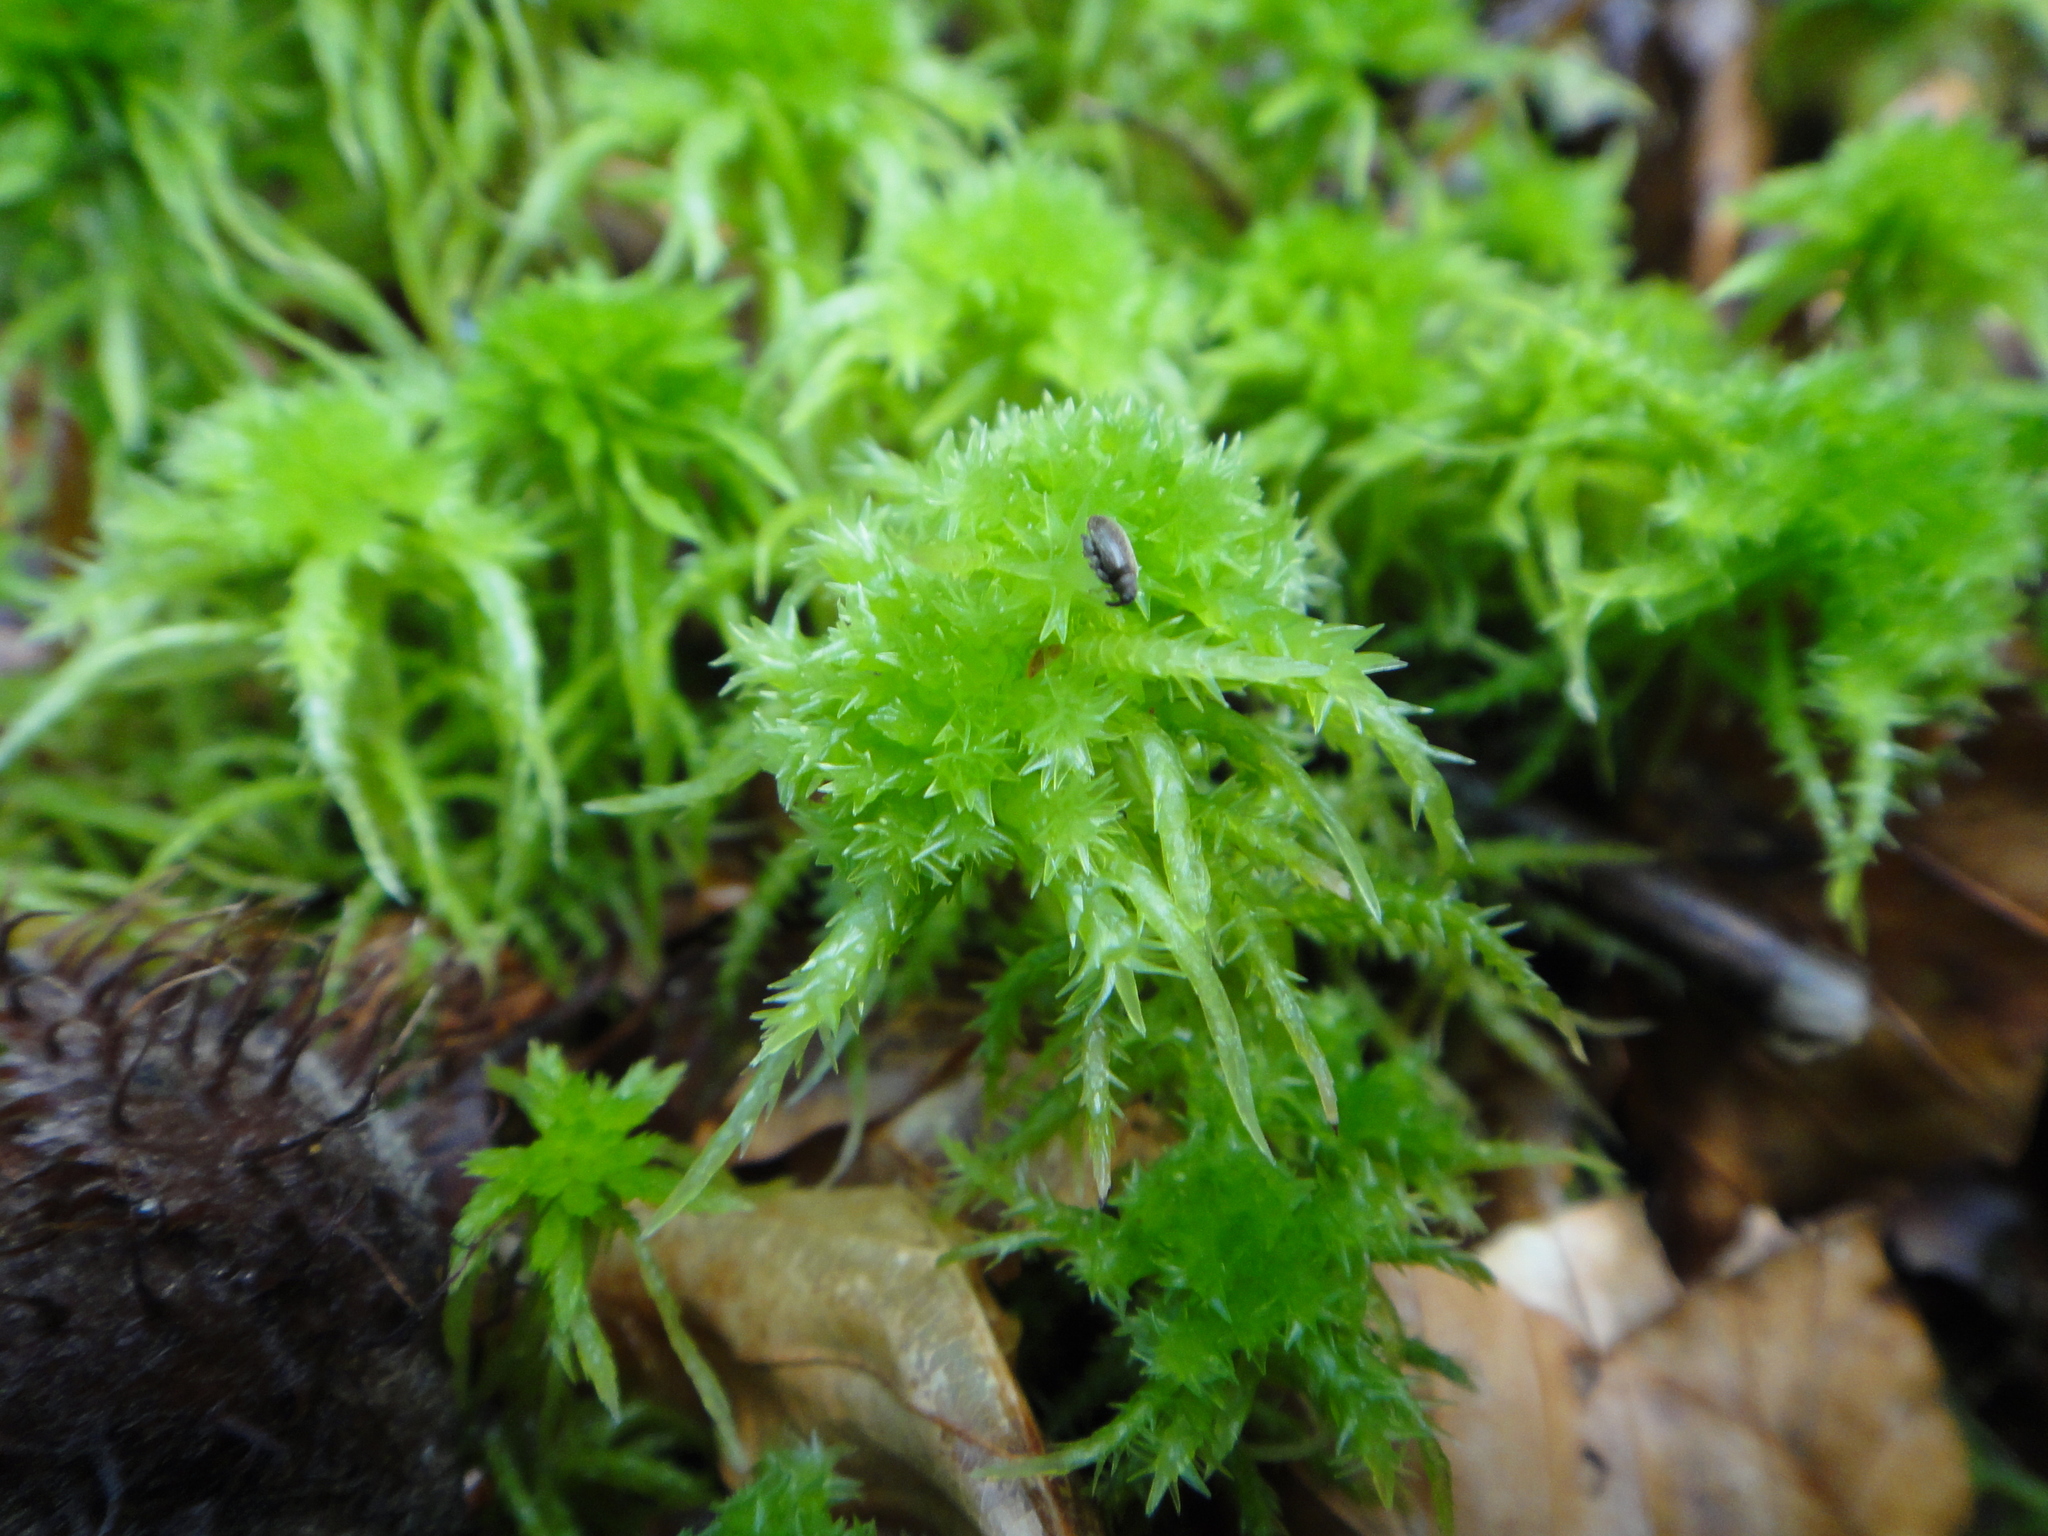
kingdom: Plantae
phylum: Bryophyta
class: Sphagnopsida
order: Sphagnales
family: Sphagnaceae
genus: Sphagnum
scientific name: Sphagnum squarrosum
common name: Shaggy peat moss
